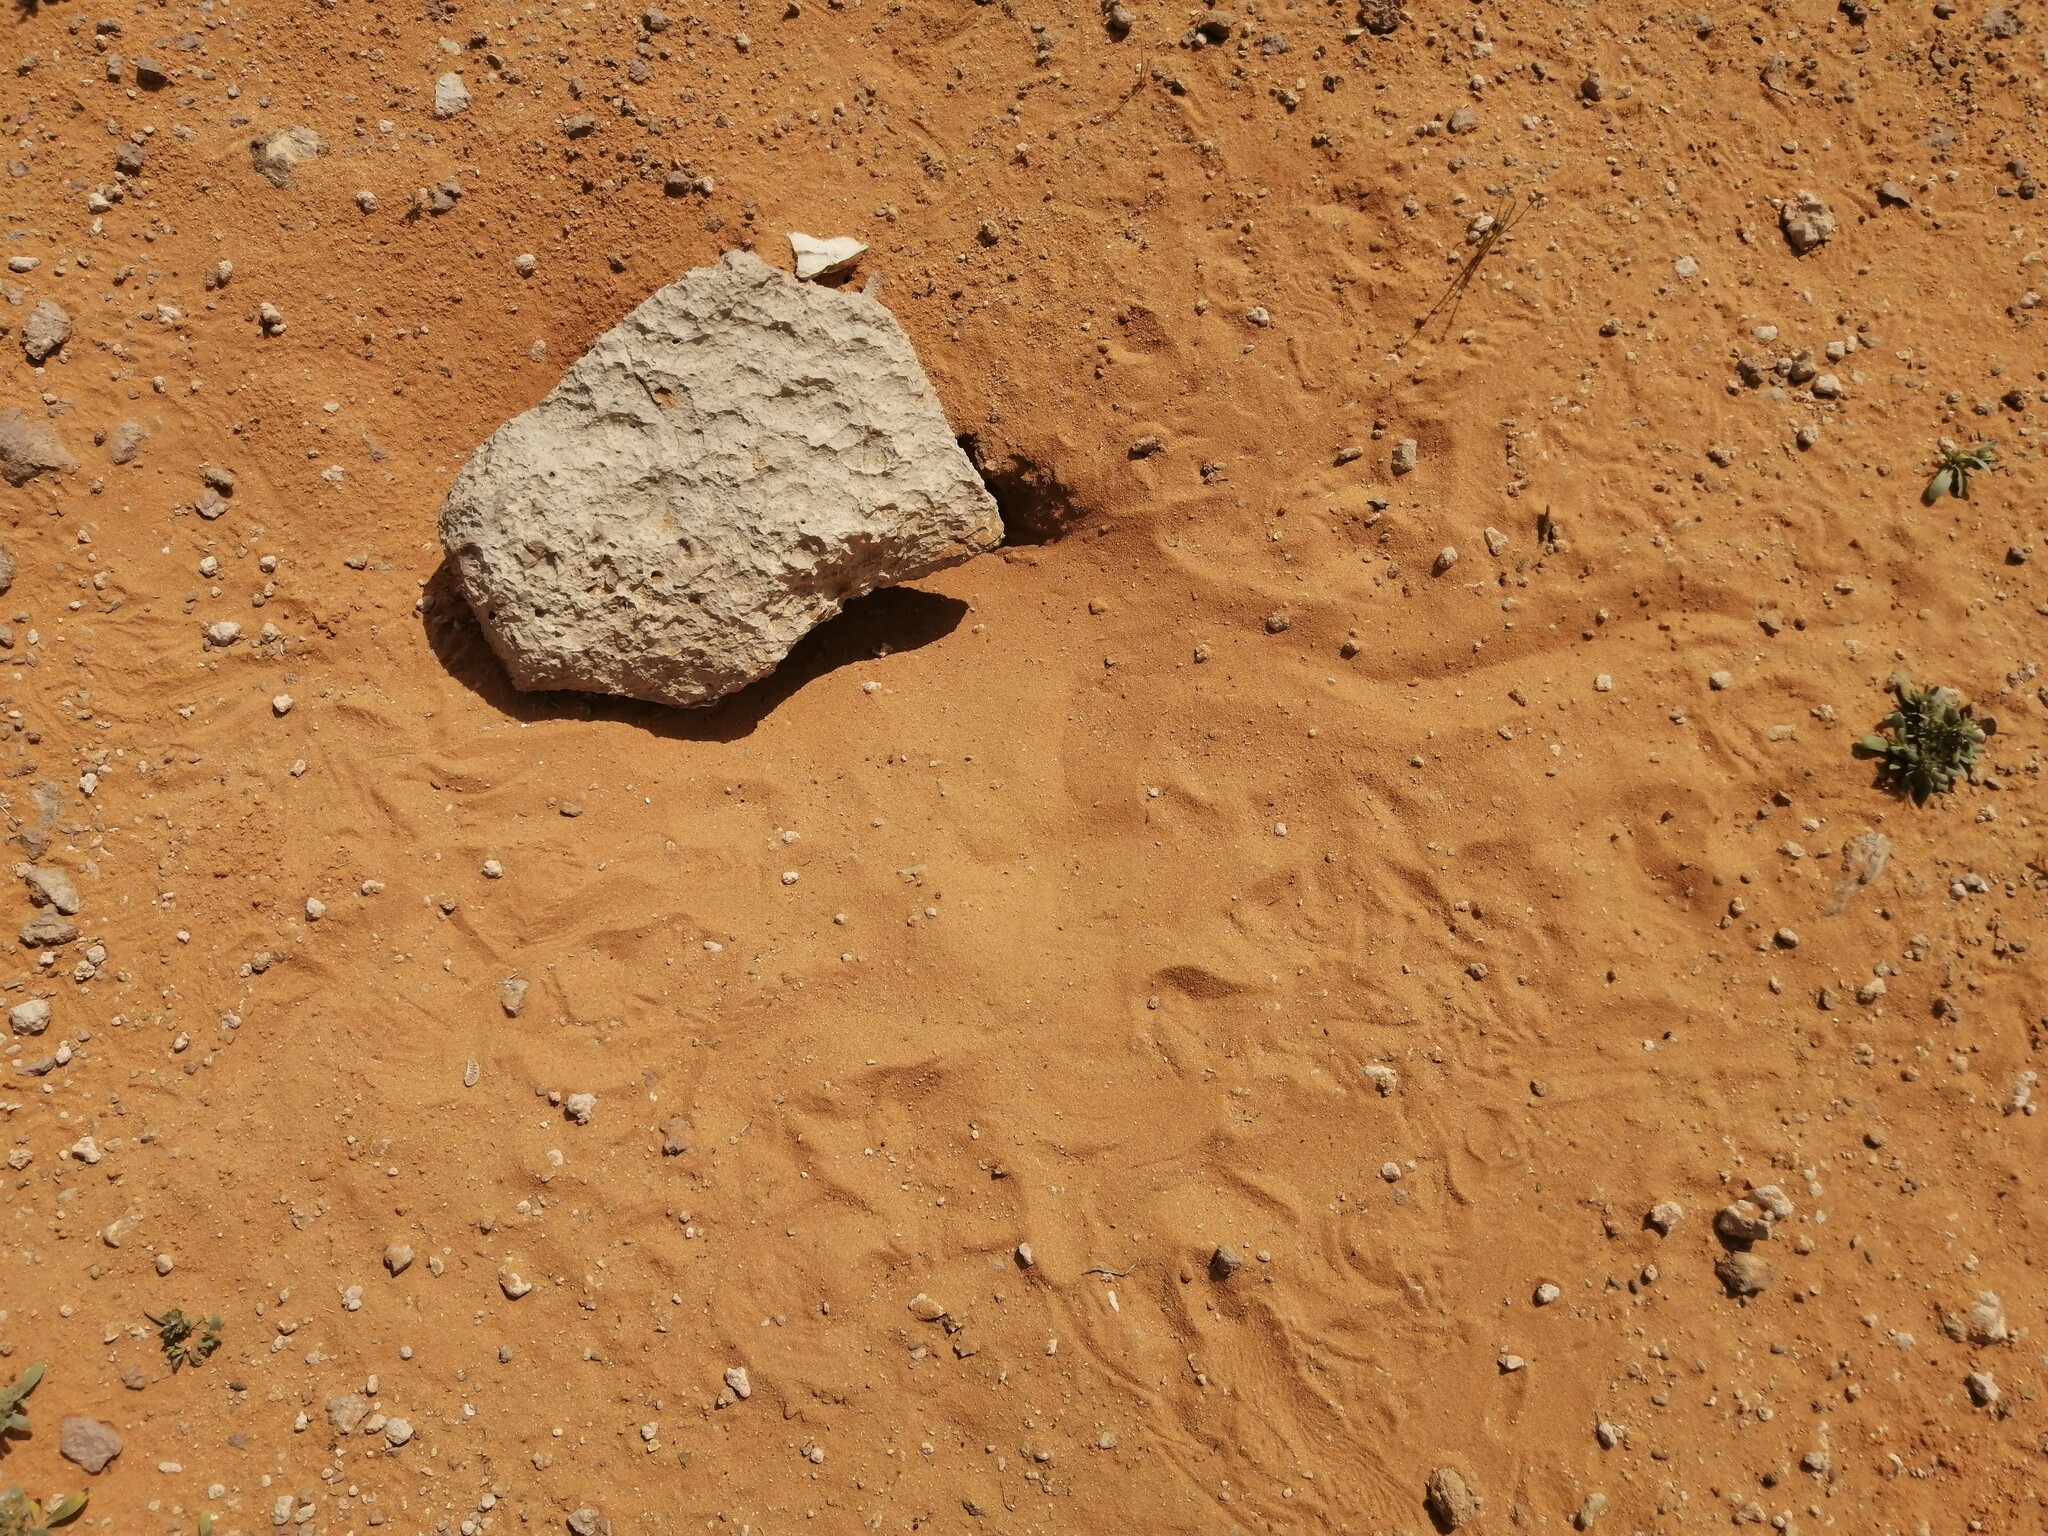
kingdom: Animalia
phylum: Chordata
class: Squamata
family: Agamidae
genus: Uromastyx
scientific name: Uromastyx aegyptia
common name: Egyptian mastigure
